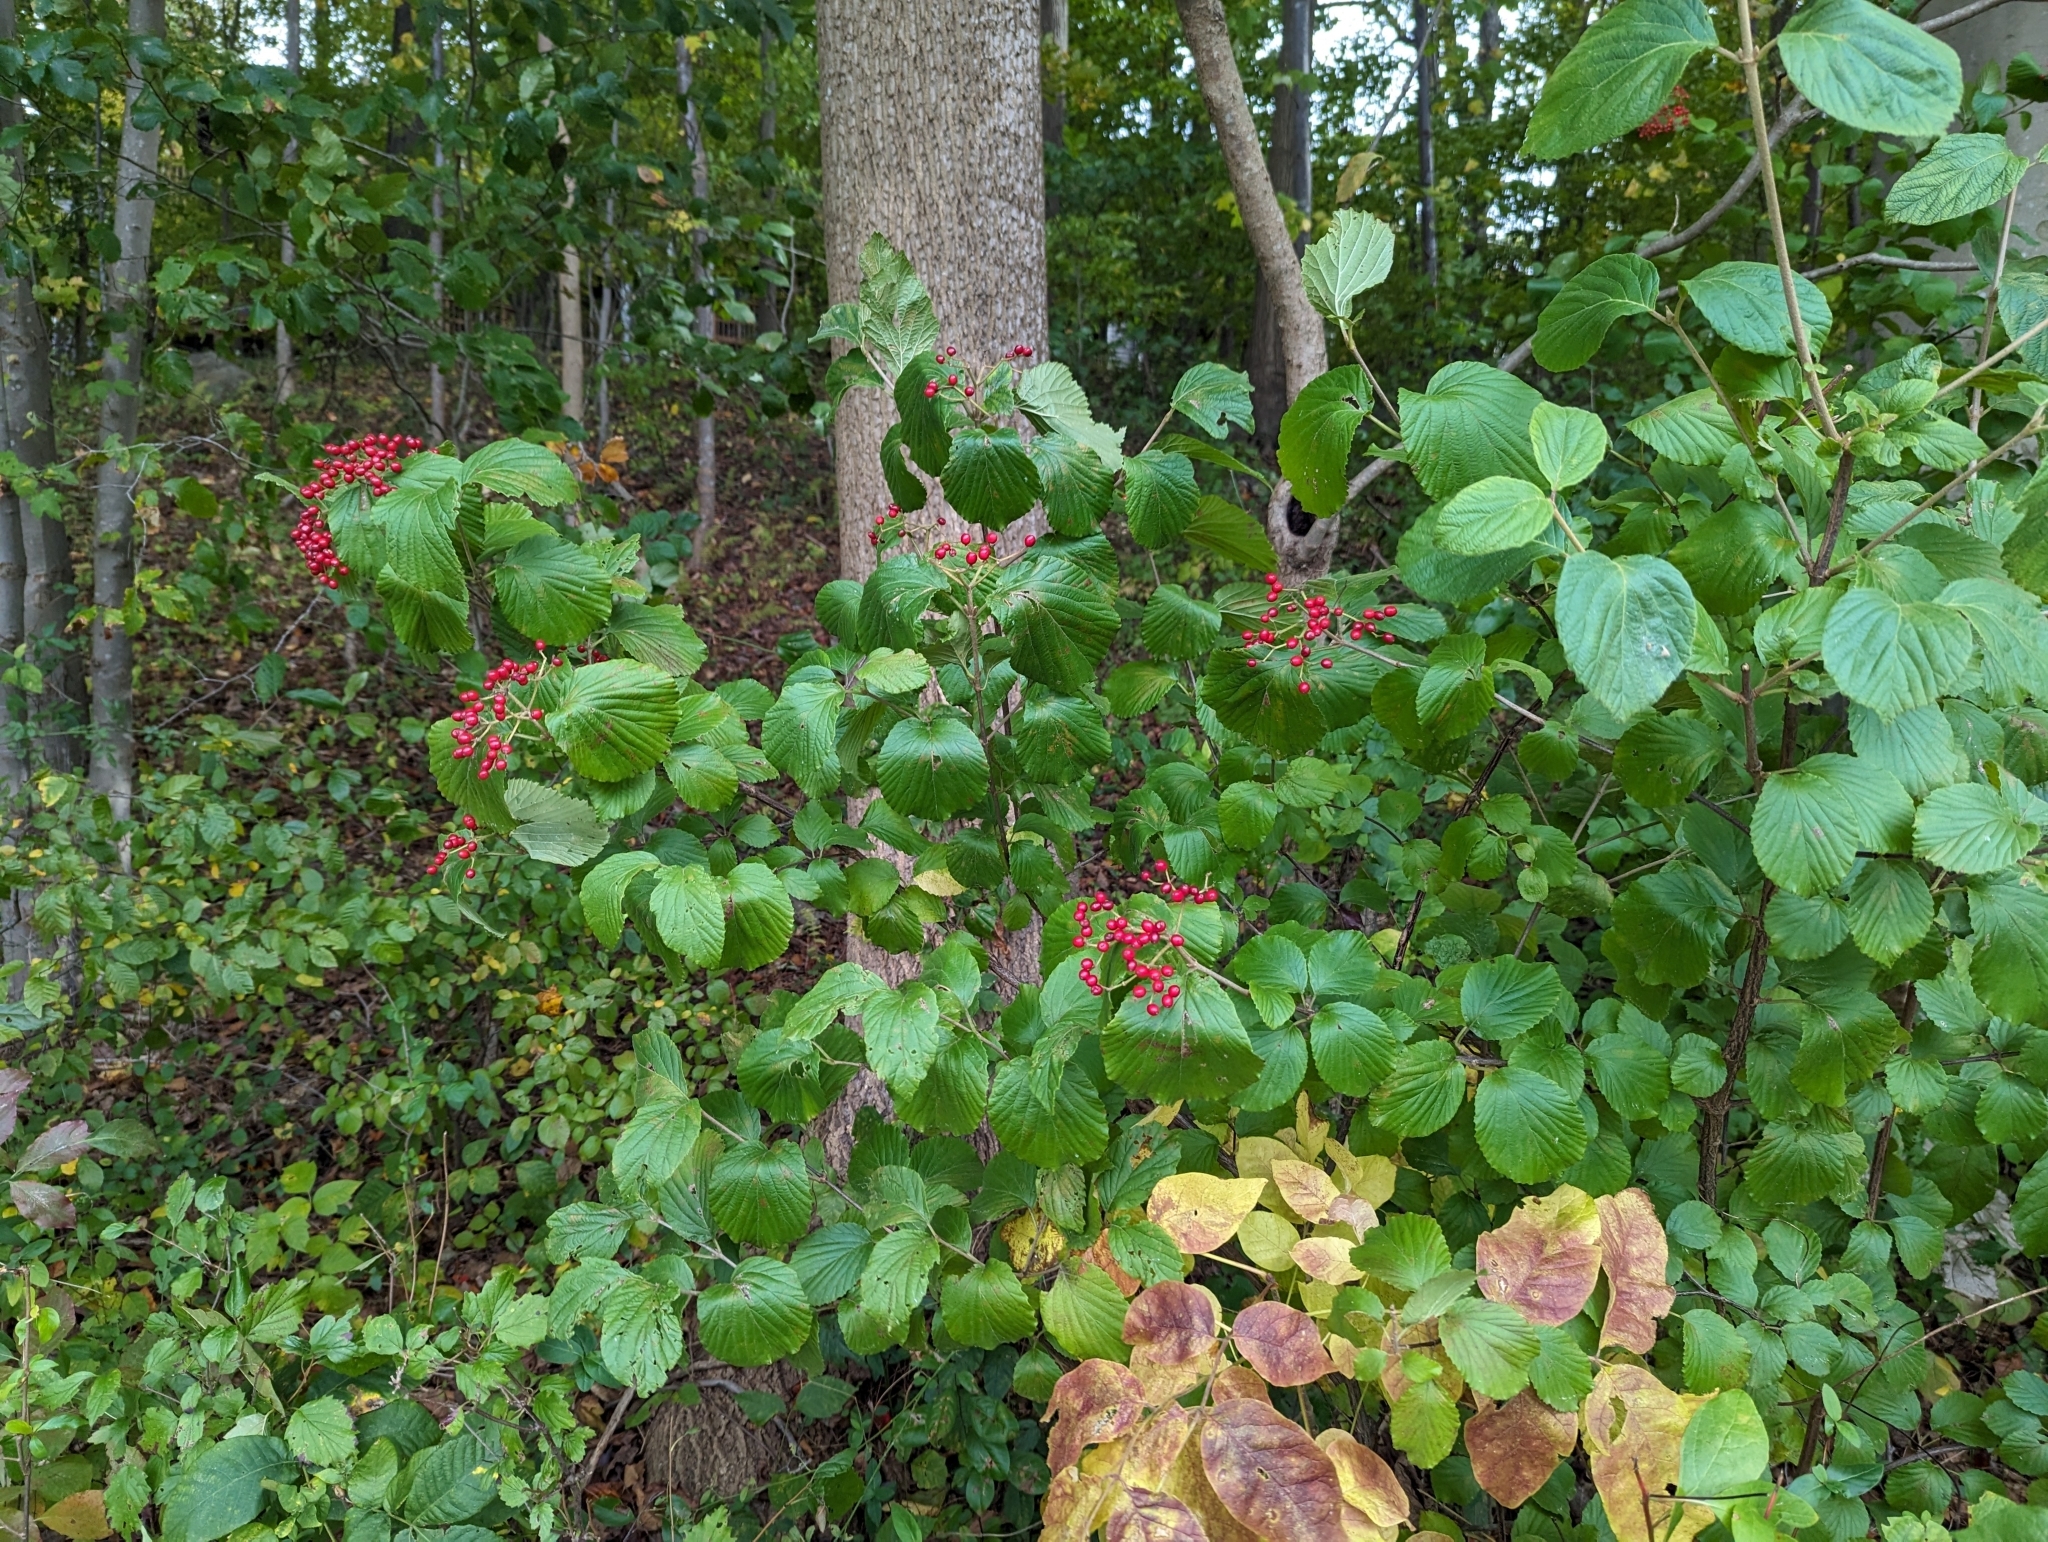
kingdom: Plantae
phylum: Tracheophyta
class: Magnoliopsida
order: Dipsacales
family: Viburnaceae
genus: Viburnum
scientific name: Viburnum dilatatum
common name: Linden arrowwood
